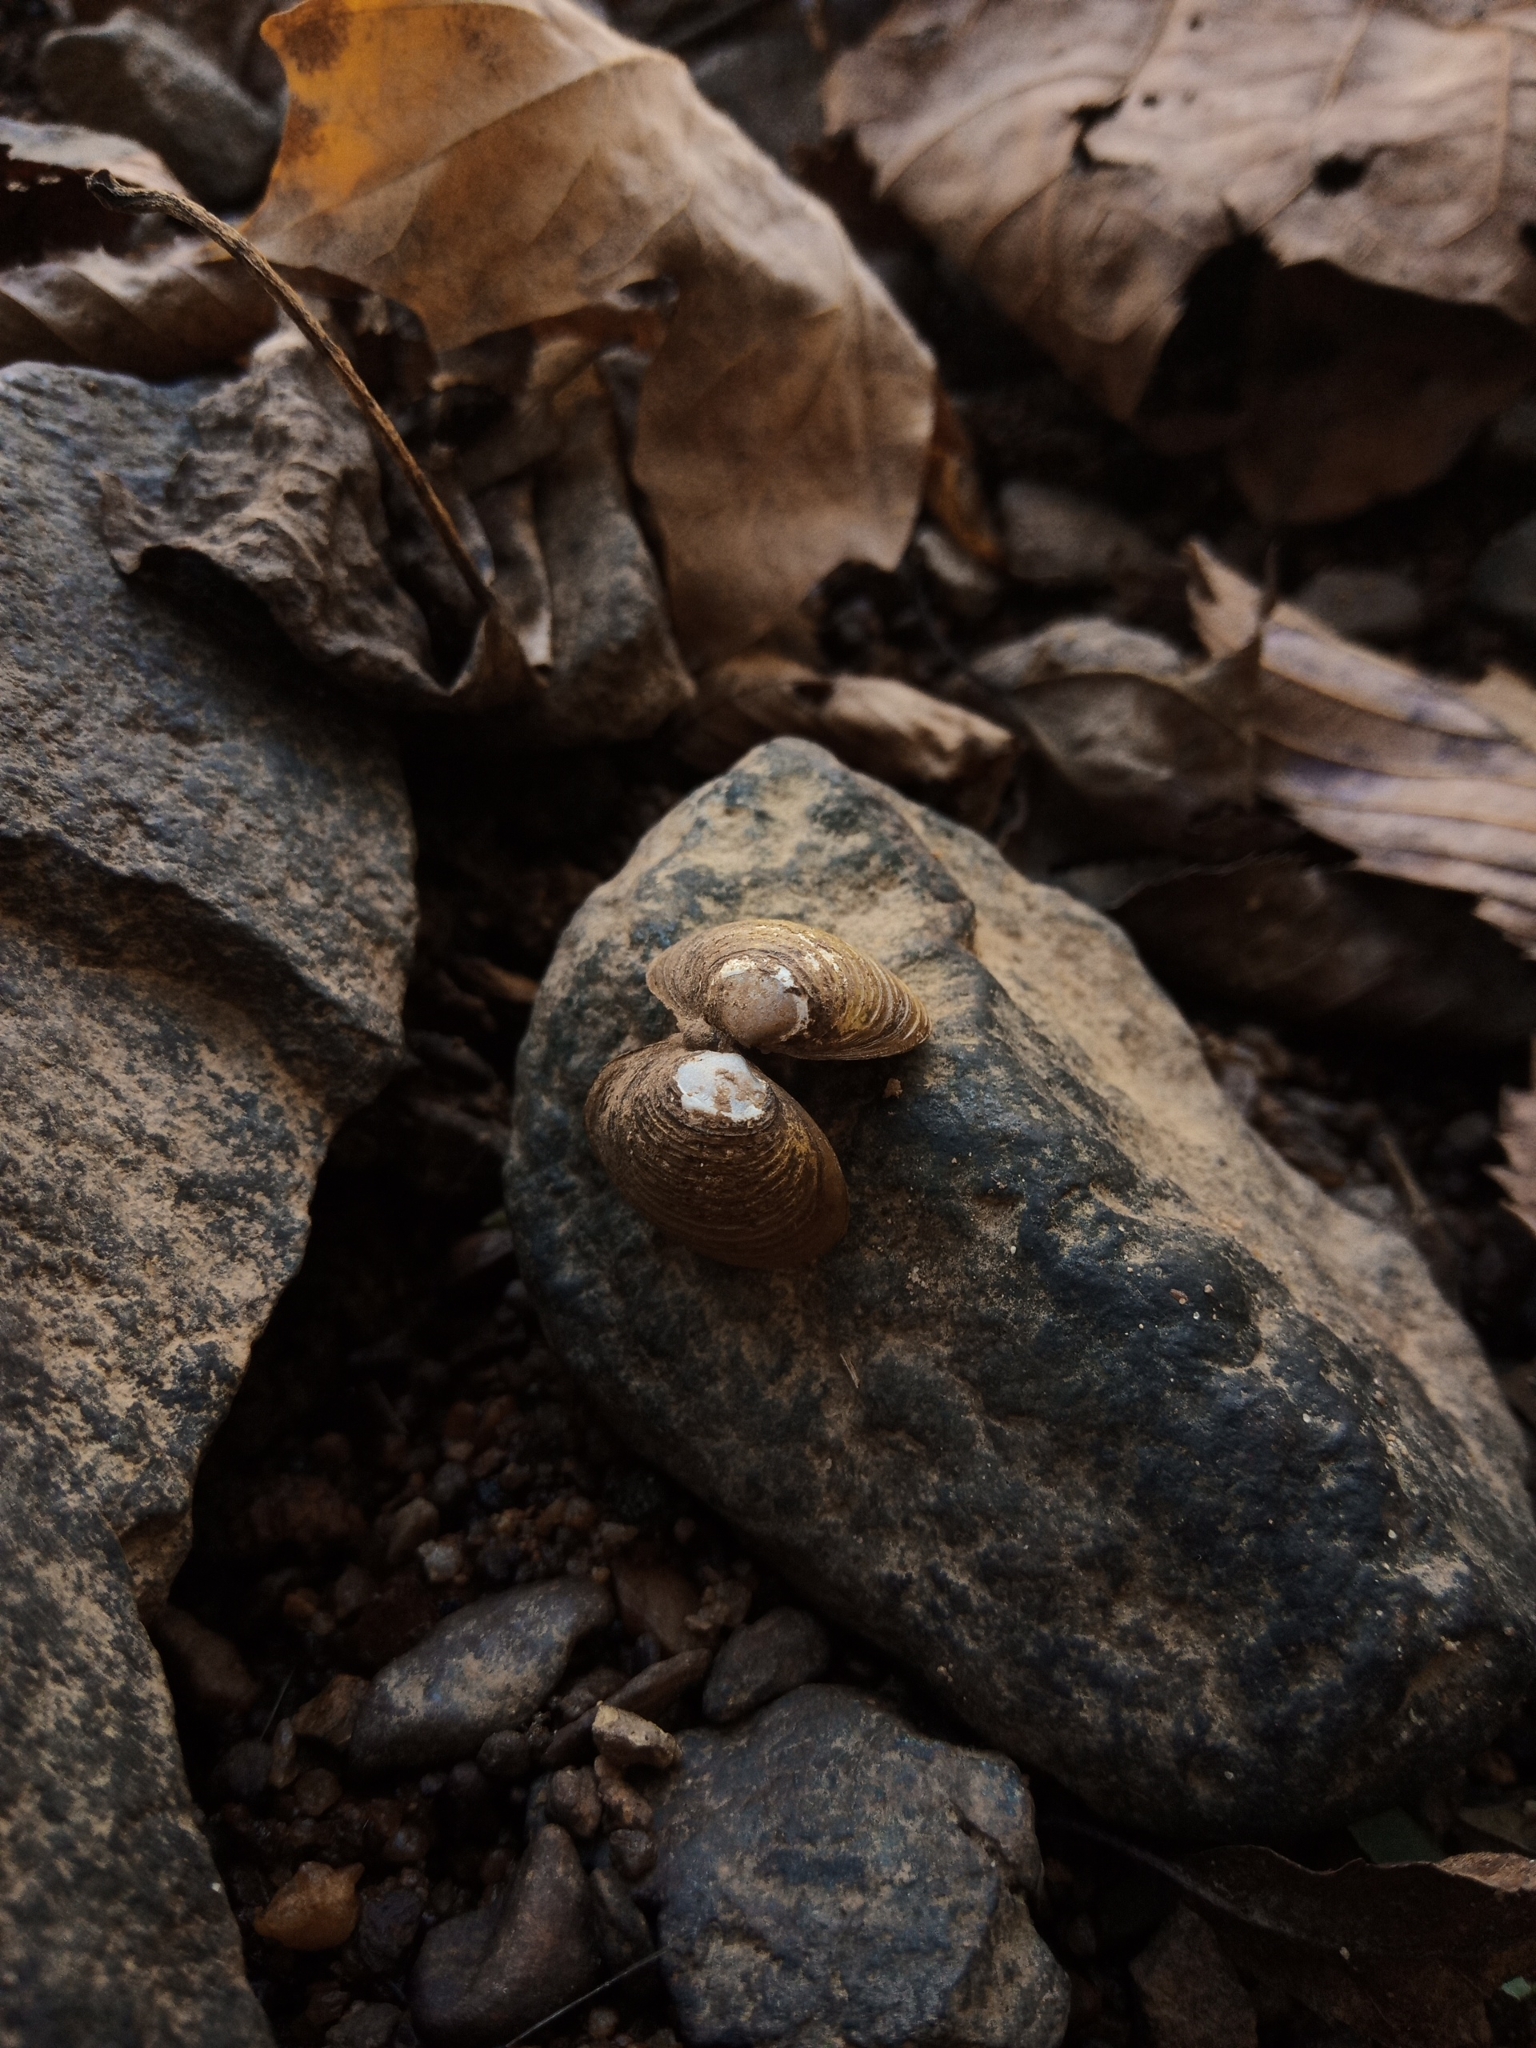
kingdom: Animalia
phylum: Mollusca
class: Bivalvia
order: Venerida
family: Cyrenidae
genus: Corbicula
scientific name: Corbicula fluminea
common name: Asian clam
